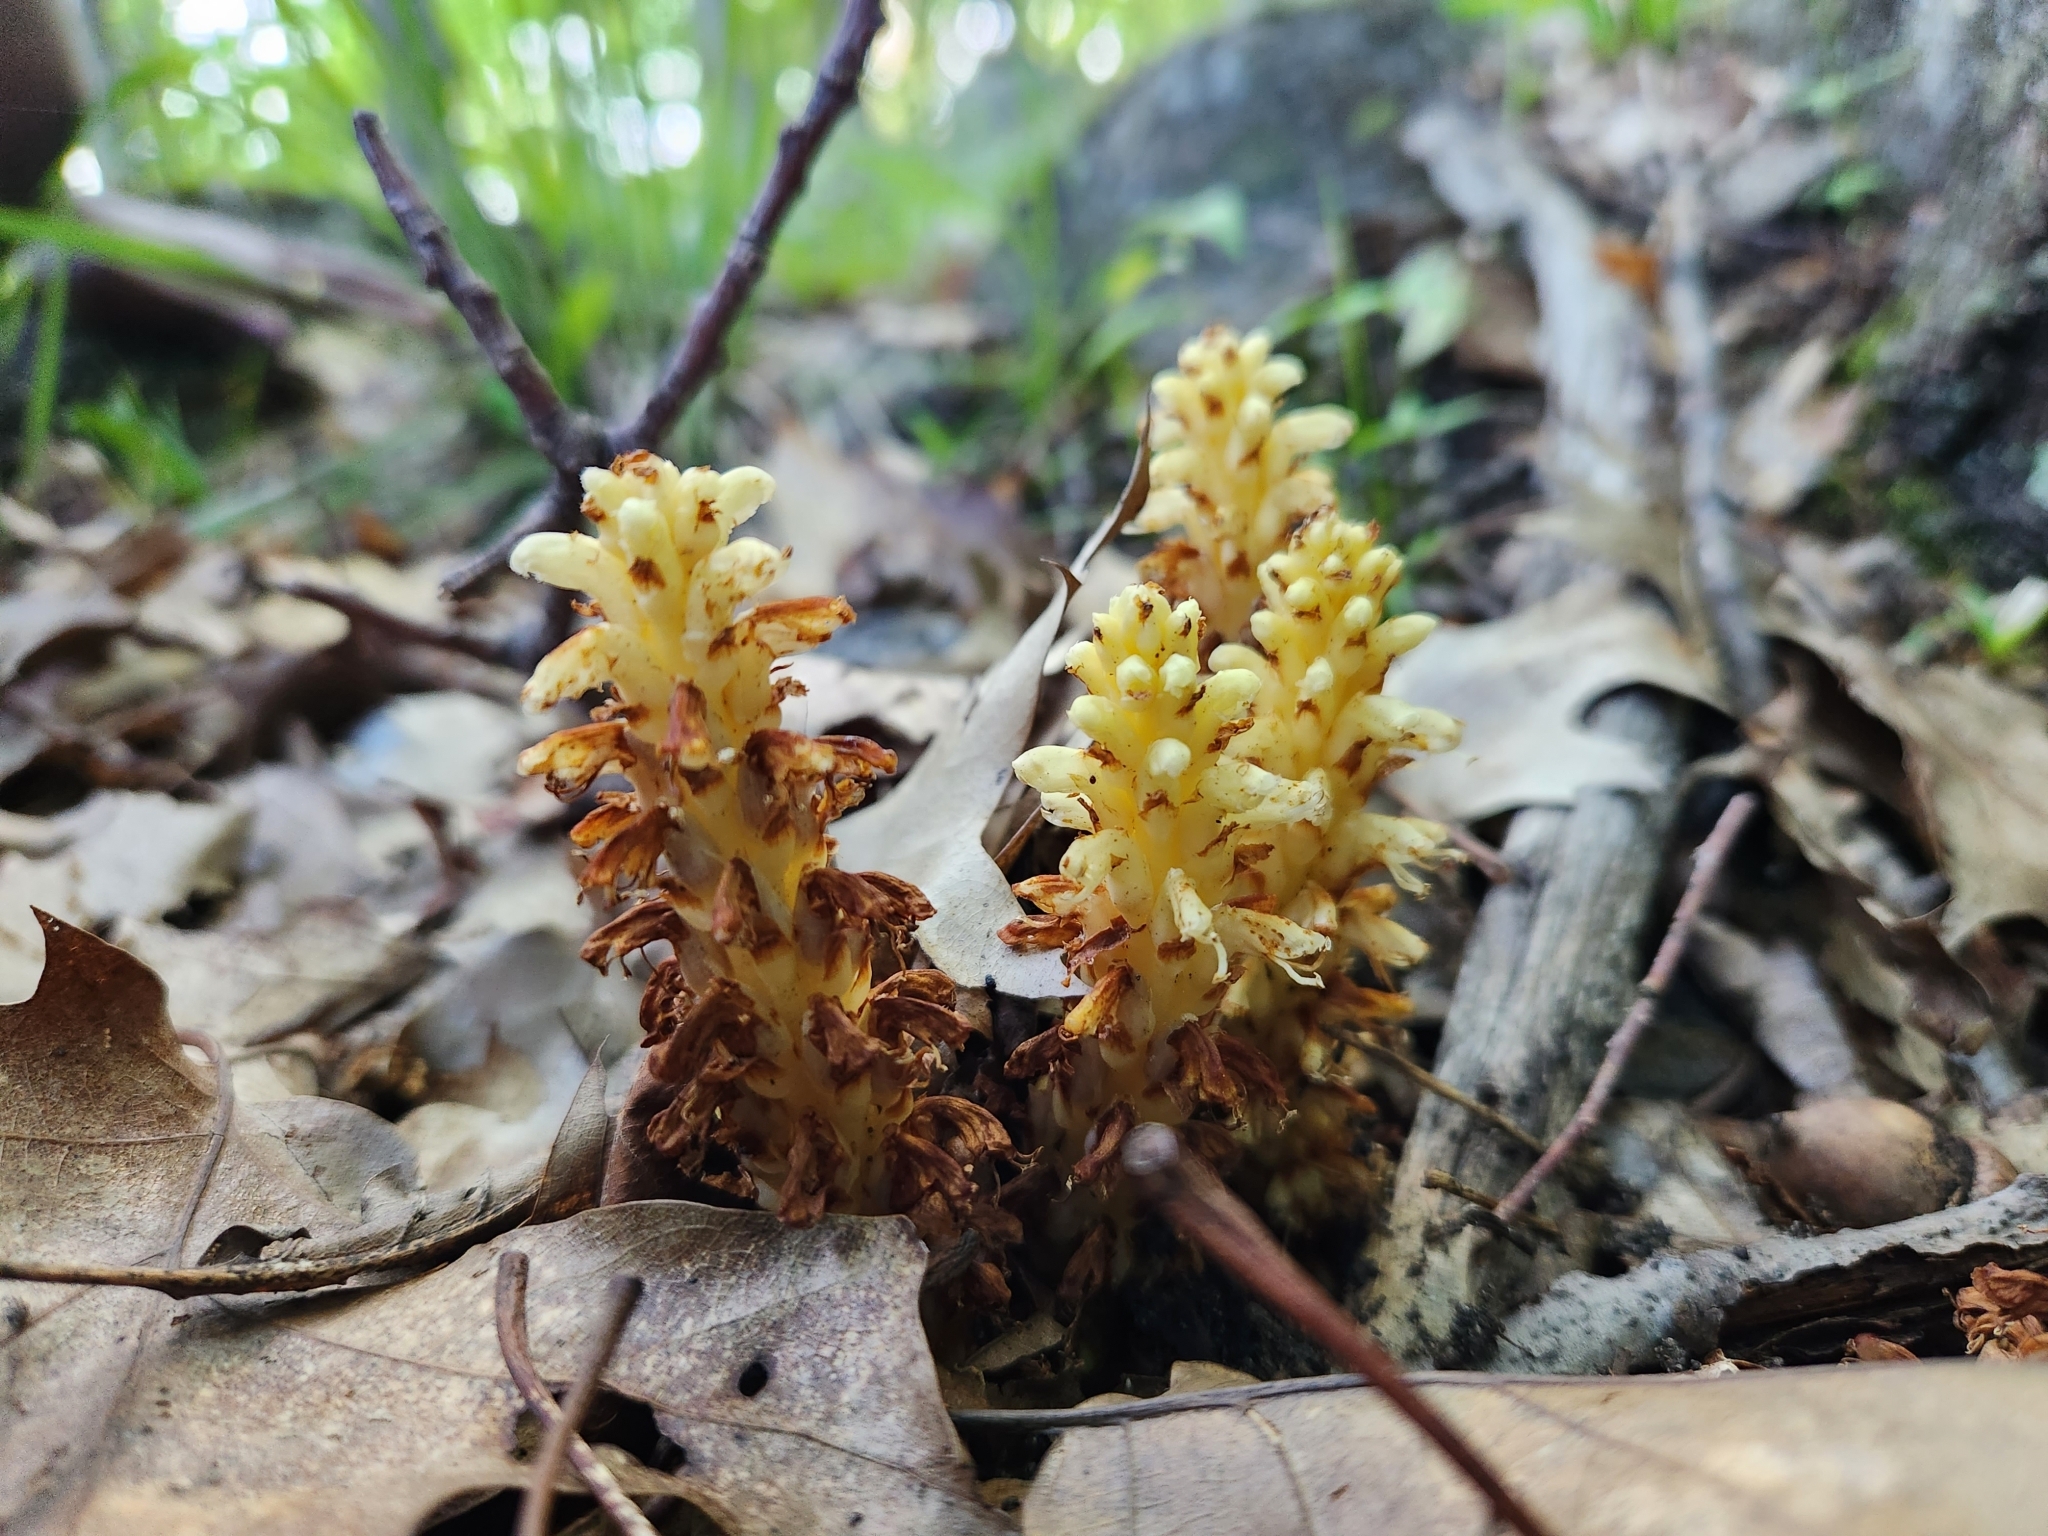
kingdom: Plantae
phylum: Tracheophyta
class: Magnoliopsida
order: Lamiales
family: Orobanchaceae
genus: Conopholis
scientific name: Conopholis americana
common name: American cancer-root
